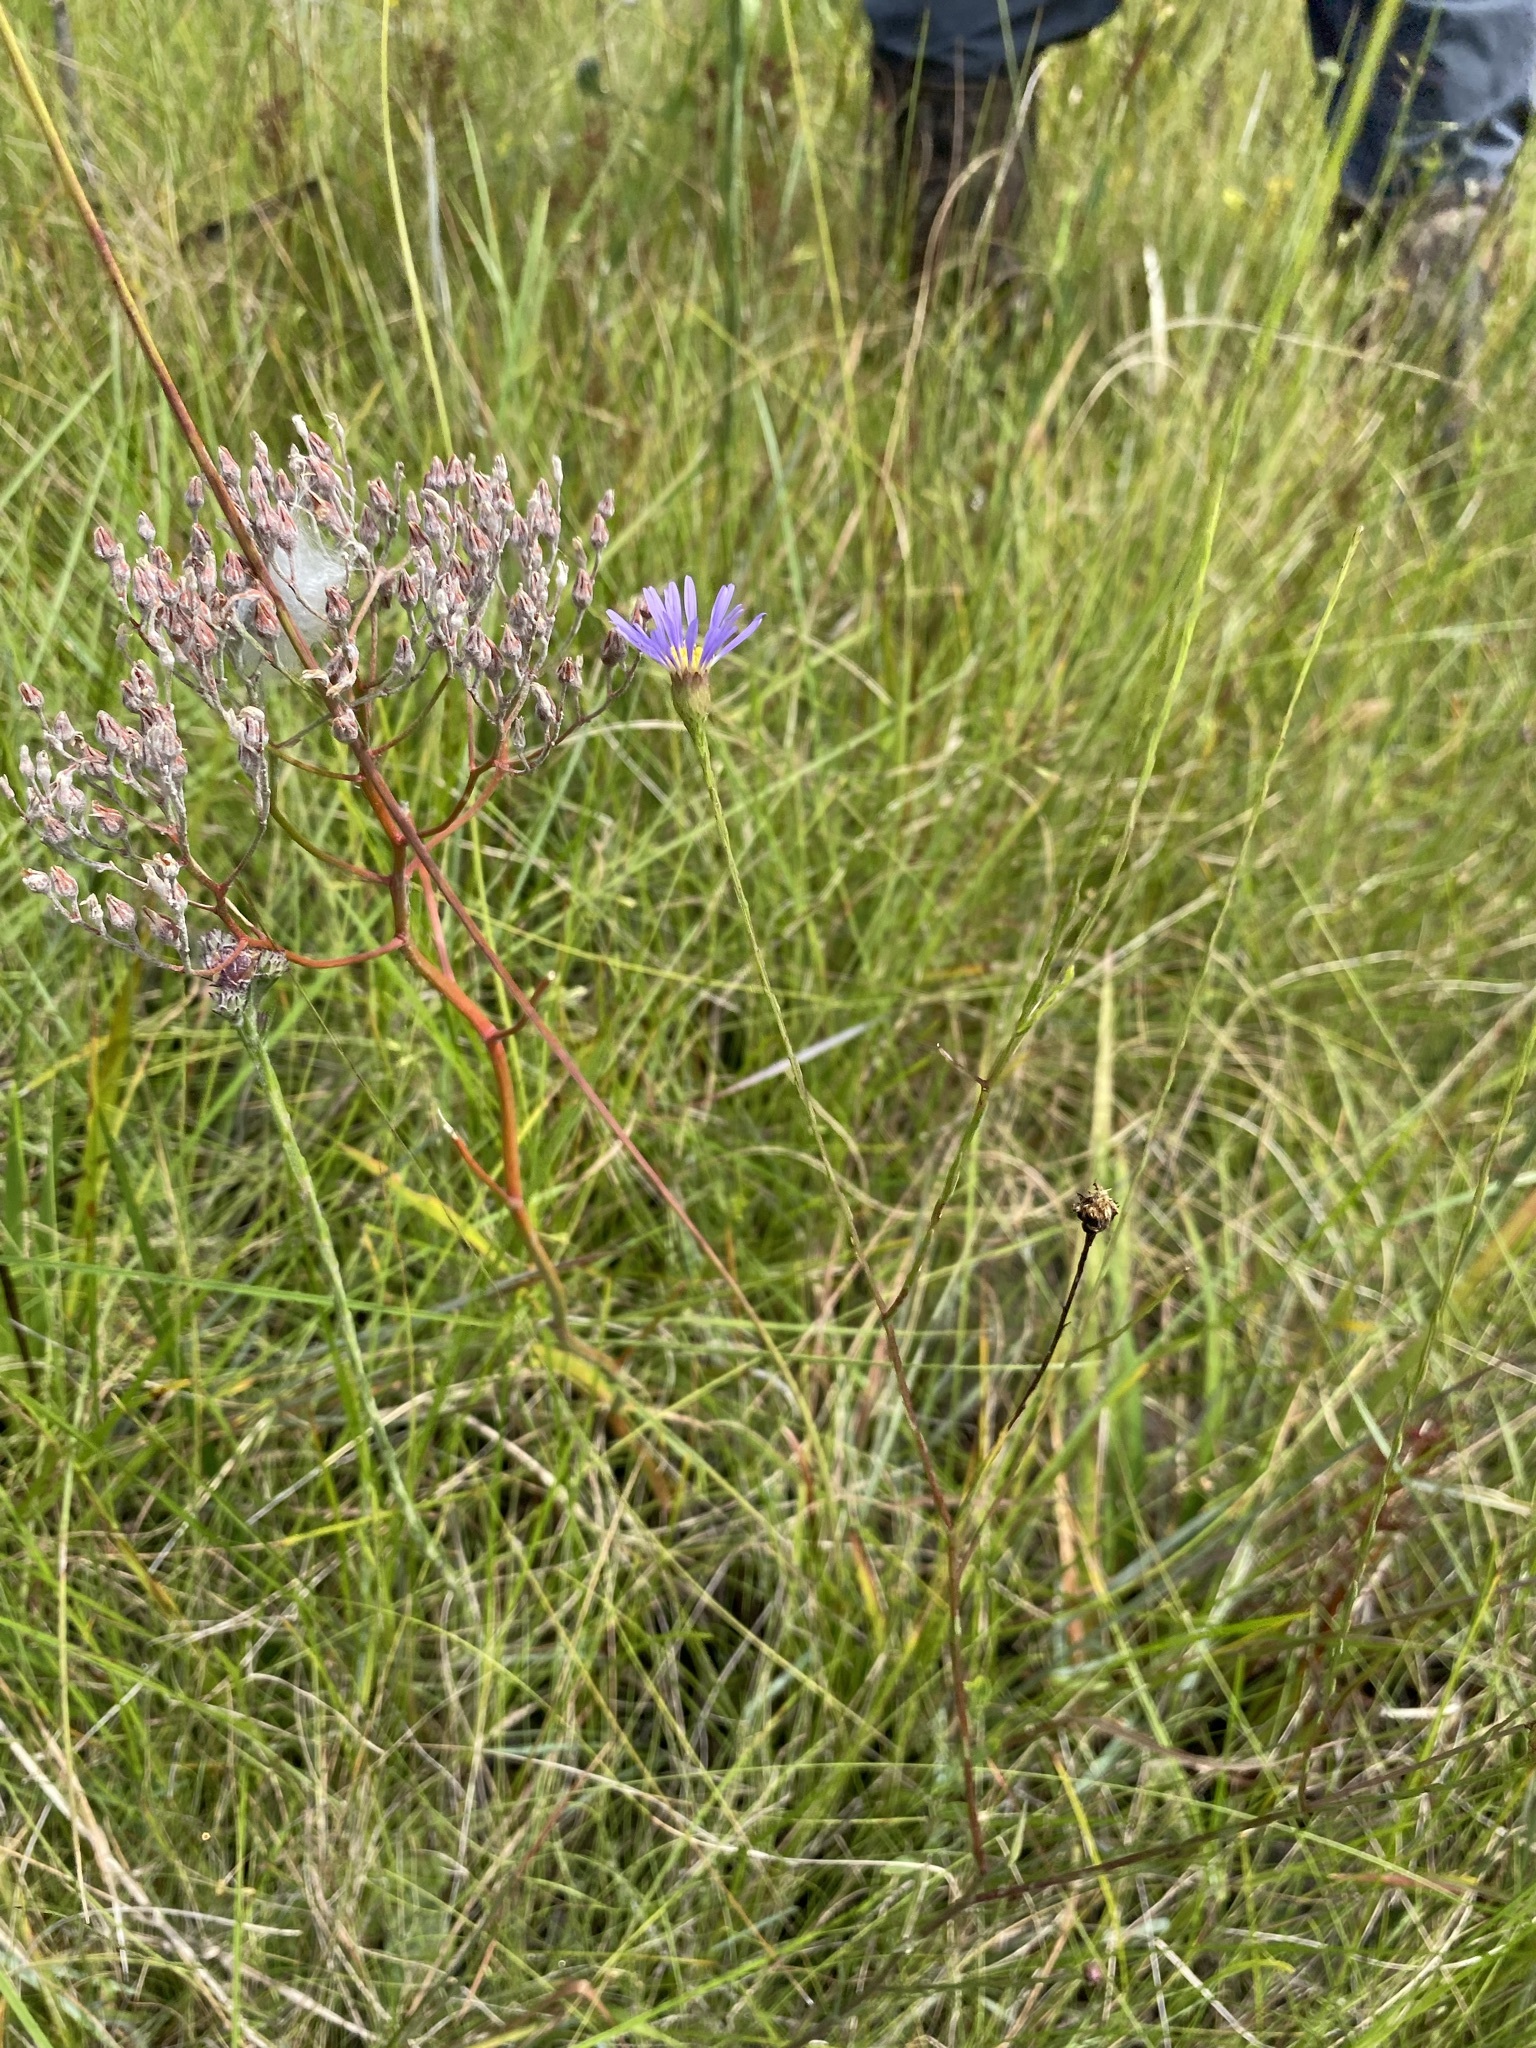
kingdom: Plantae
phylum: Tracheophyta
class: Magnoliopsida
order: Asterales
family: Asteraceae
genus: Symphyotrichum
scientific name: Symphyotrichum chapmanii
